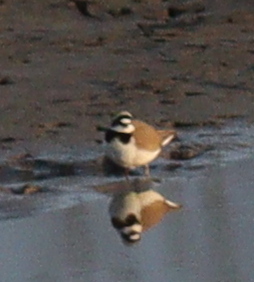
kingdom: Animalia
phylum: Chordata
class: Aves
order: Charadriiformes
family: Charadriidae
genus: Charadrius
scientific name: Charadrius dubius
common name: Little ringed plover
